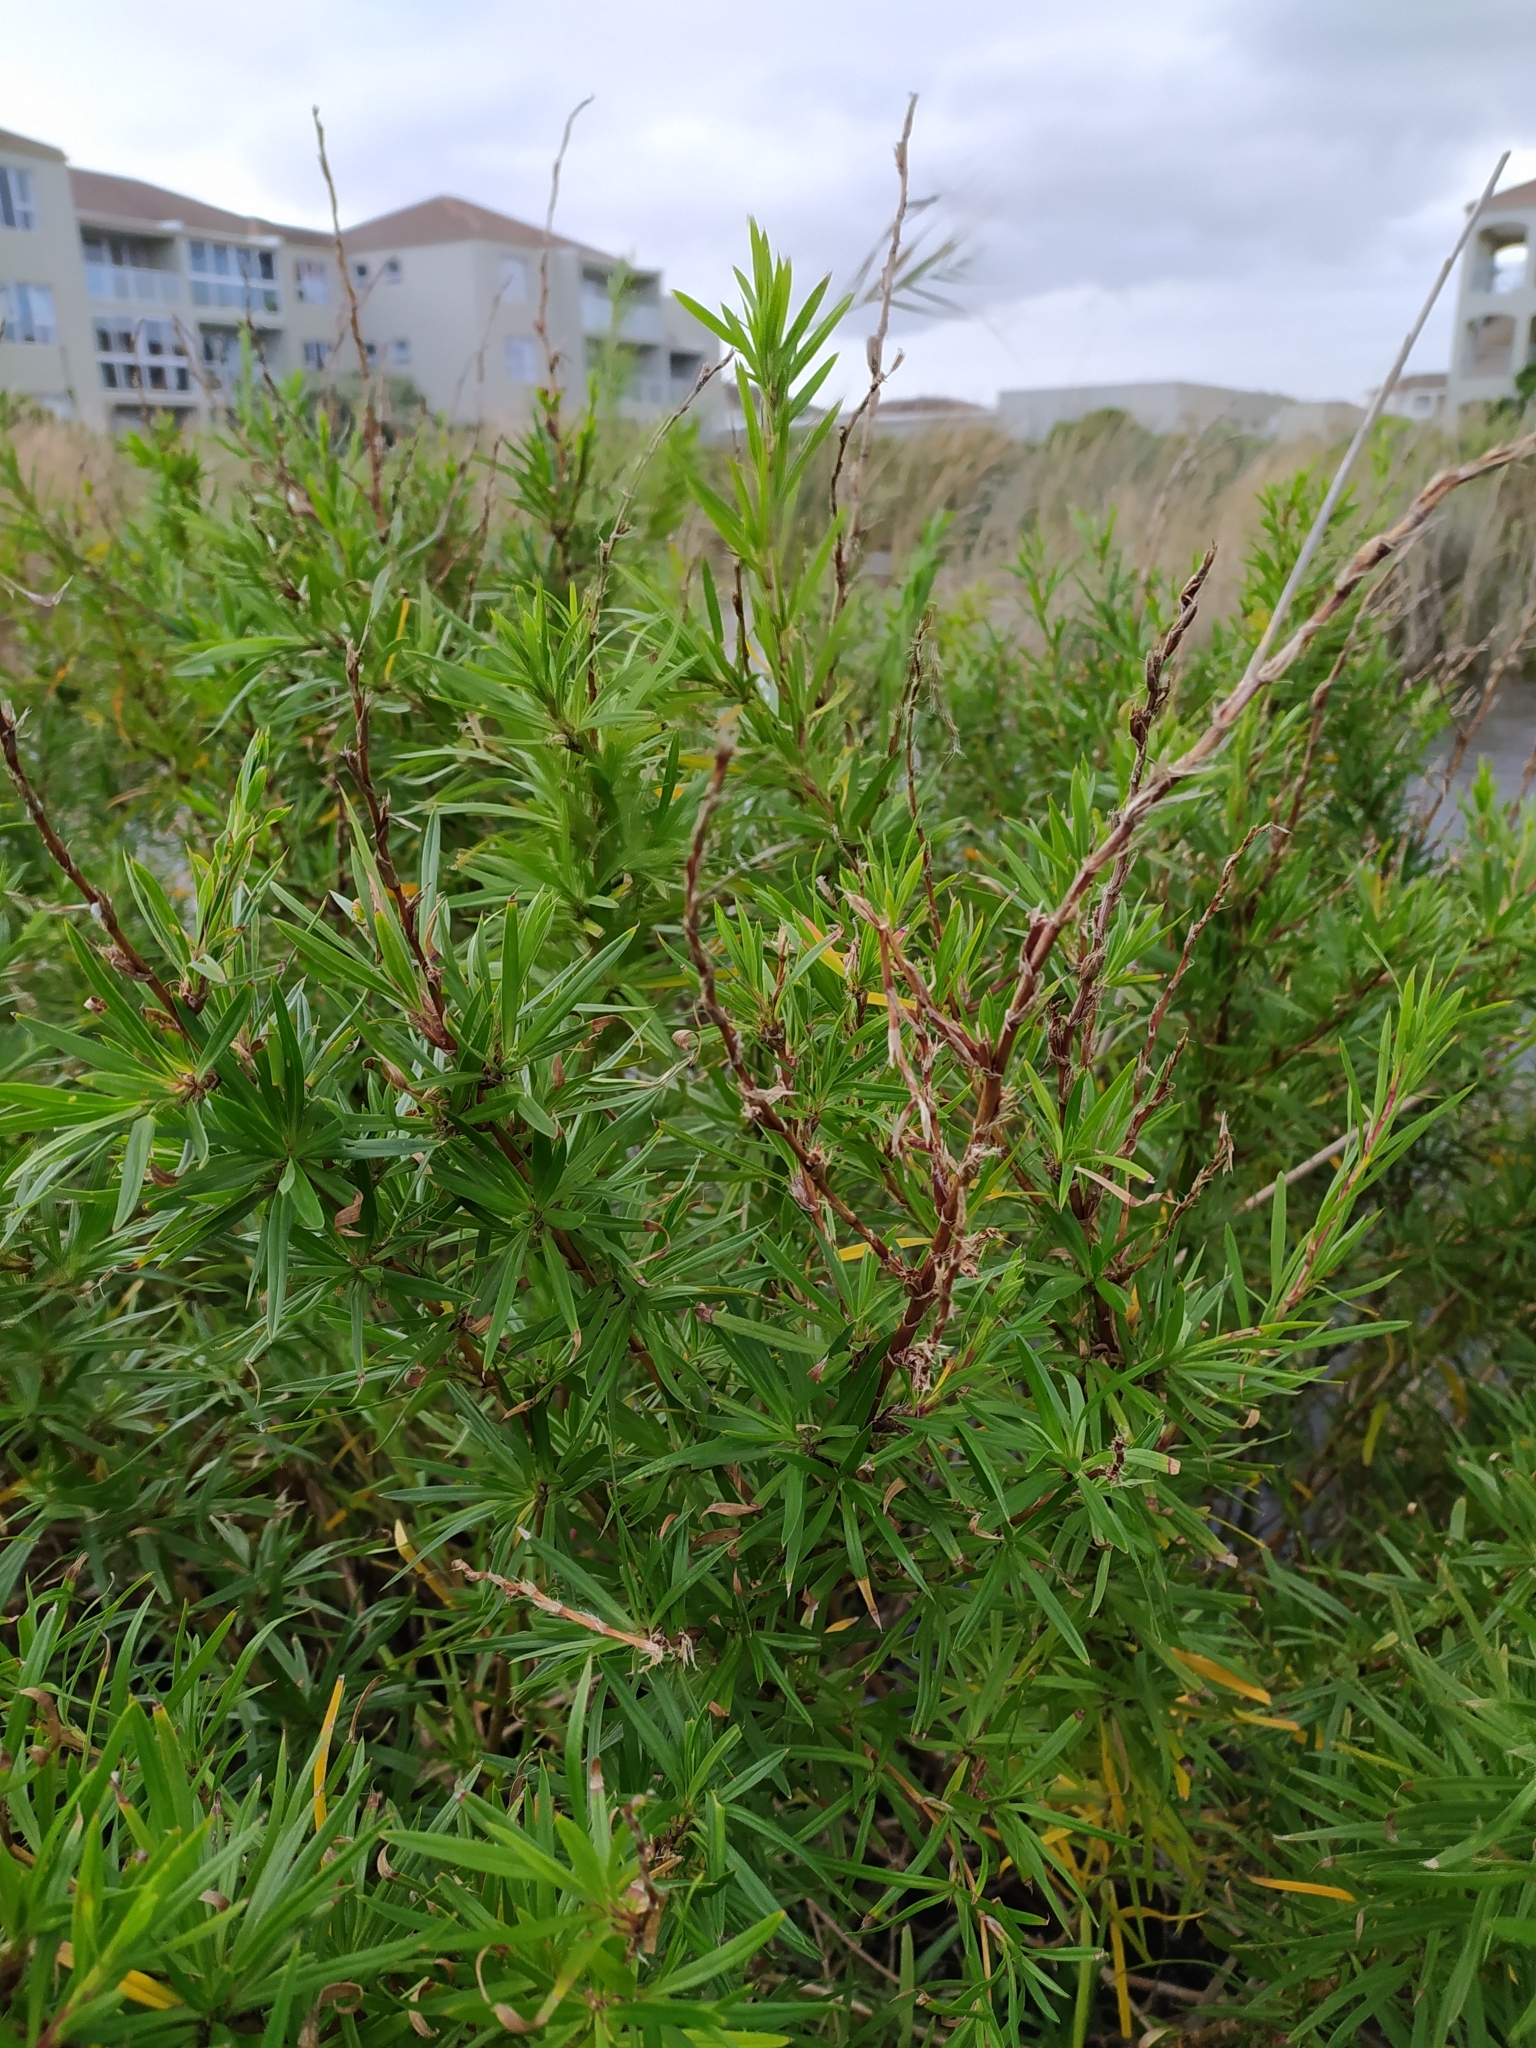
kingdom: Plantae
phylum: Tracheophyta
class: Magnoliopsida
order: Rosales
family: Rosaceae
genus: Cliffortia
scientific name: Cliffortia strobilifera
